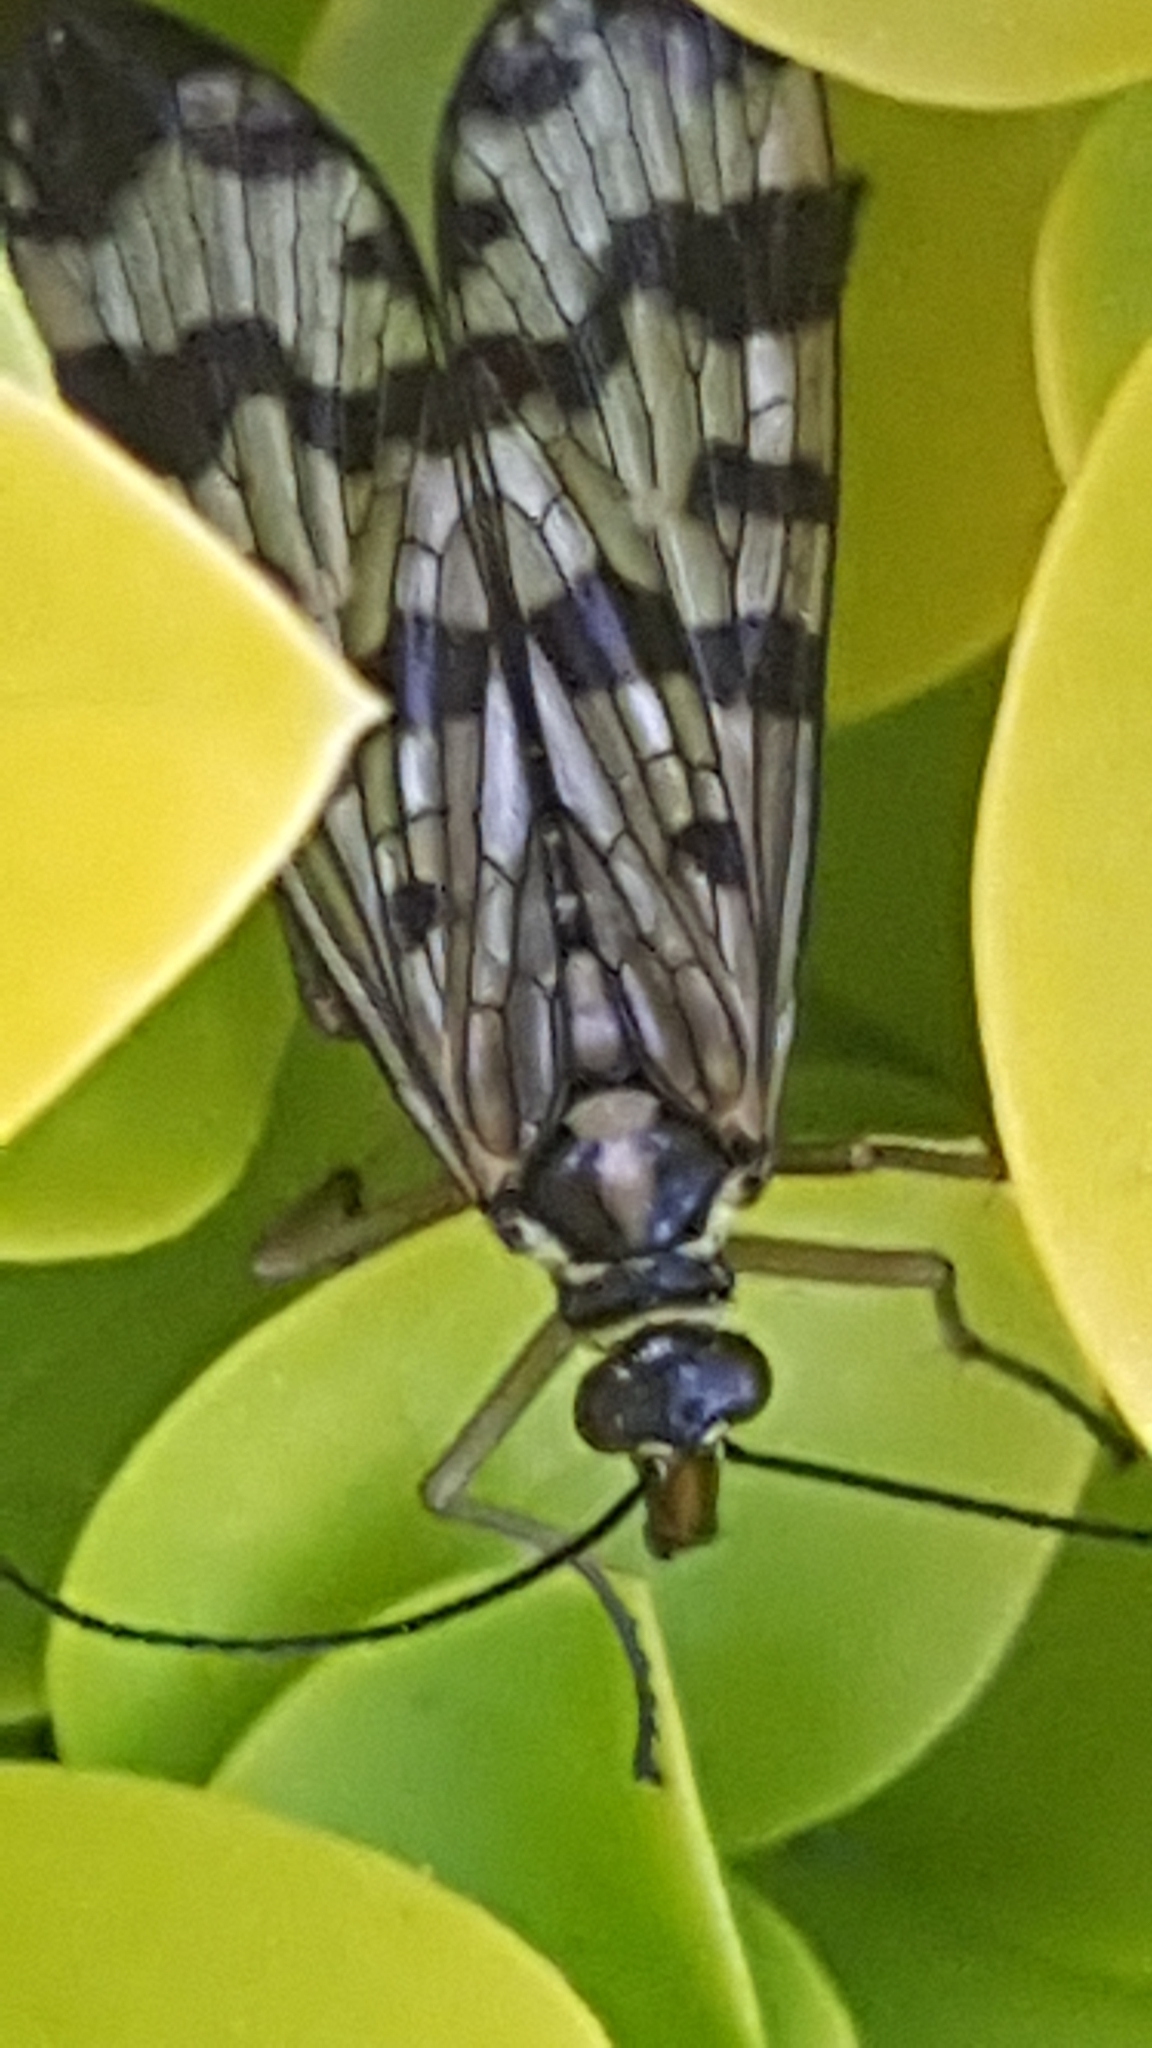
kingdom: Animalia
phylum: Arthropoda
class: Insecta
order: Mecoptera
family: Panorpidae
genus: Panorpa
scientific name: Panorpa communis
